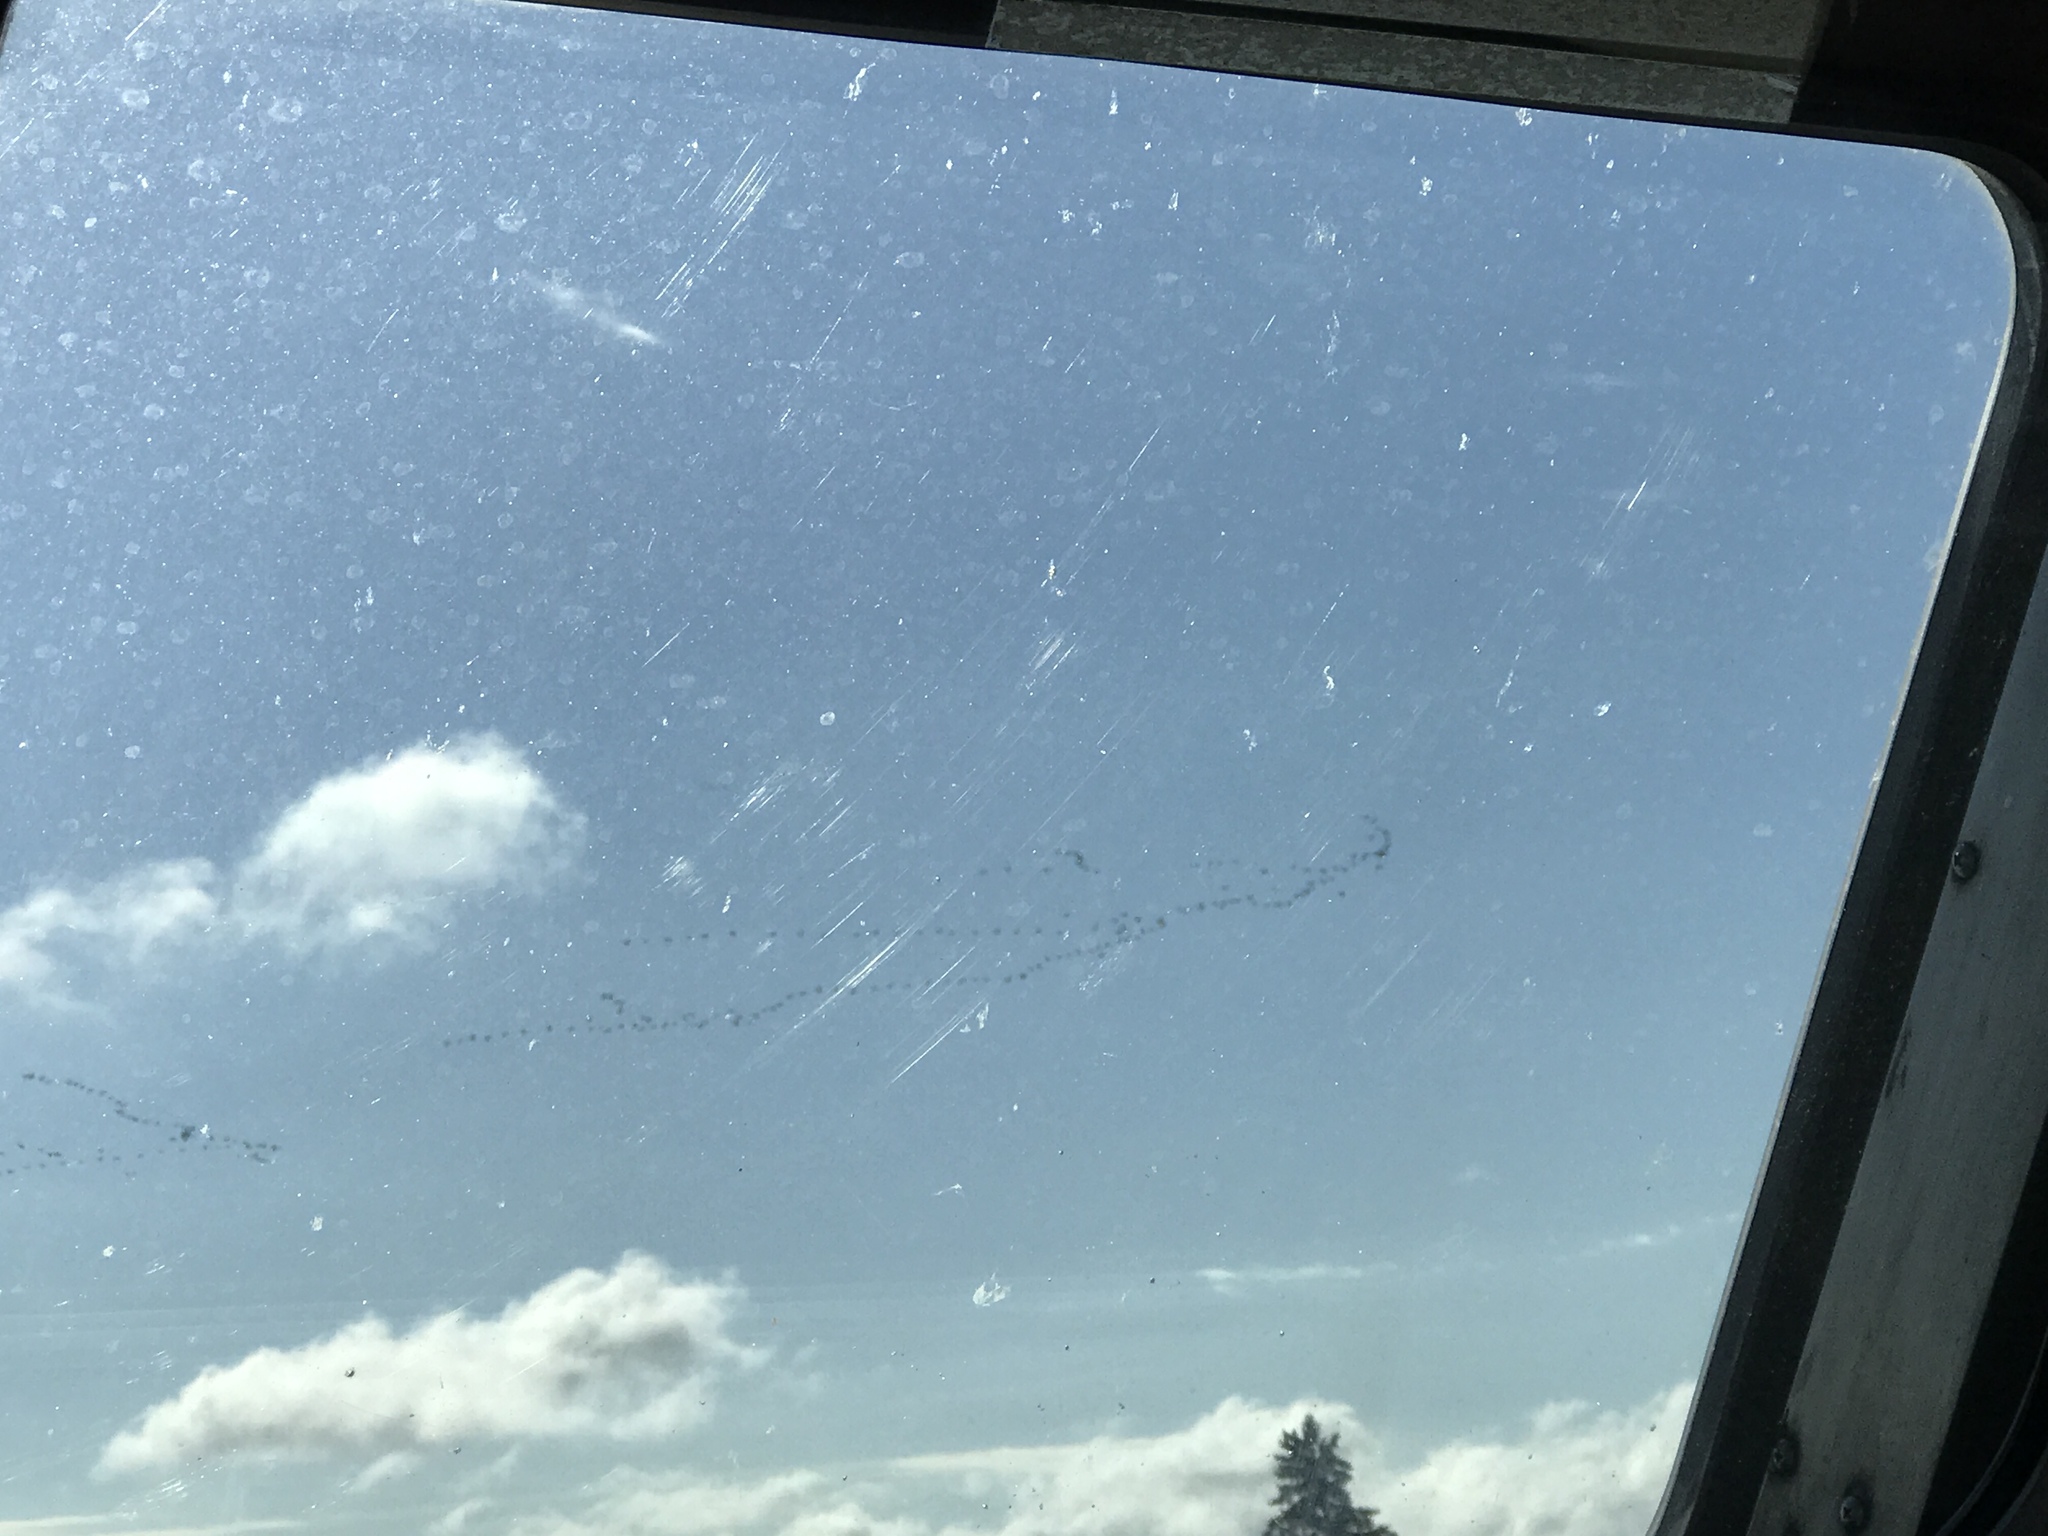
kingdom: Animalia
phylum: Chordata
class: Aves
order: Anseriformes
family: Anatidae
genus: Branta
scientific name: Branta canadensis
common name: Canada goose
